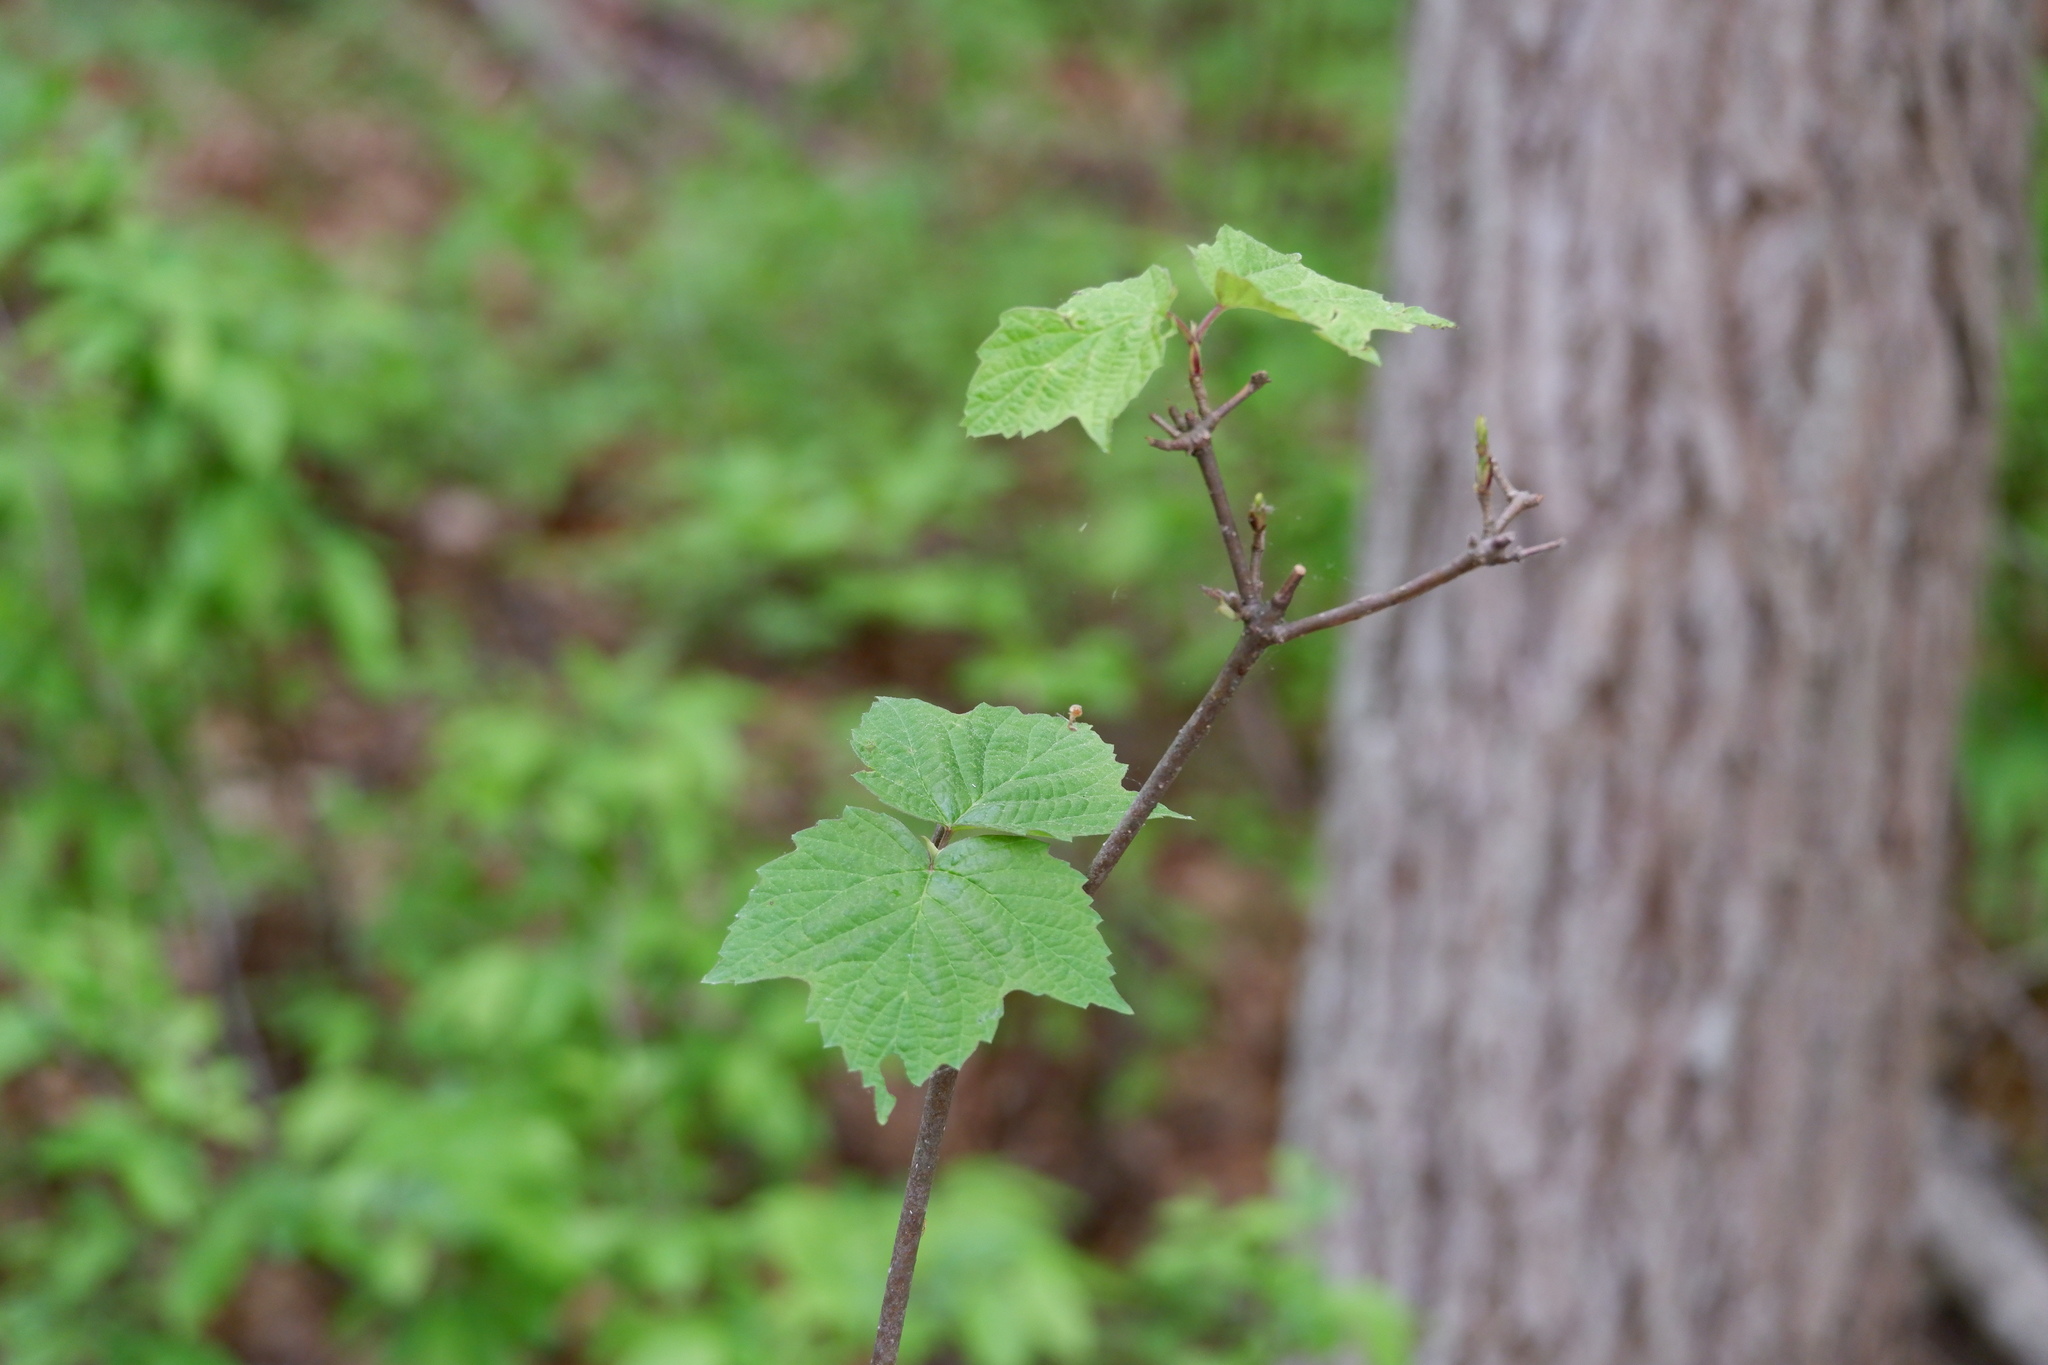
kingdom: Plantae
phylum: Tracheophyta
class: Magnoliopsida
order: Dipsacales
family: Viburnaceae
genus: Viburnum
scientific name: Viburnum acerifolium
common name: Dockmackie
